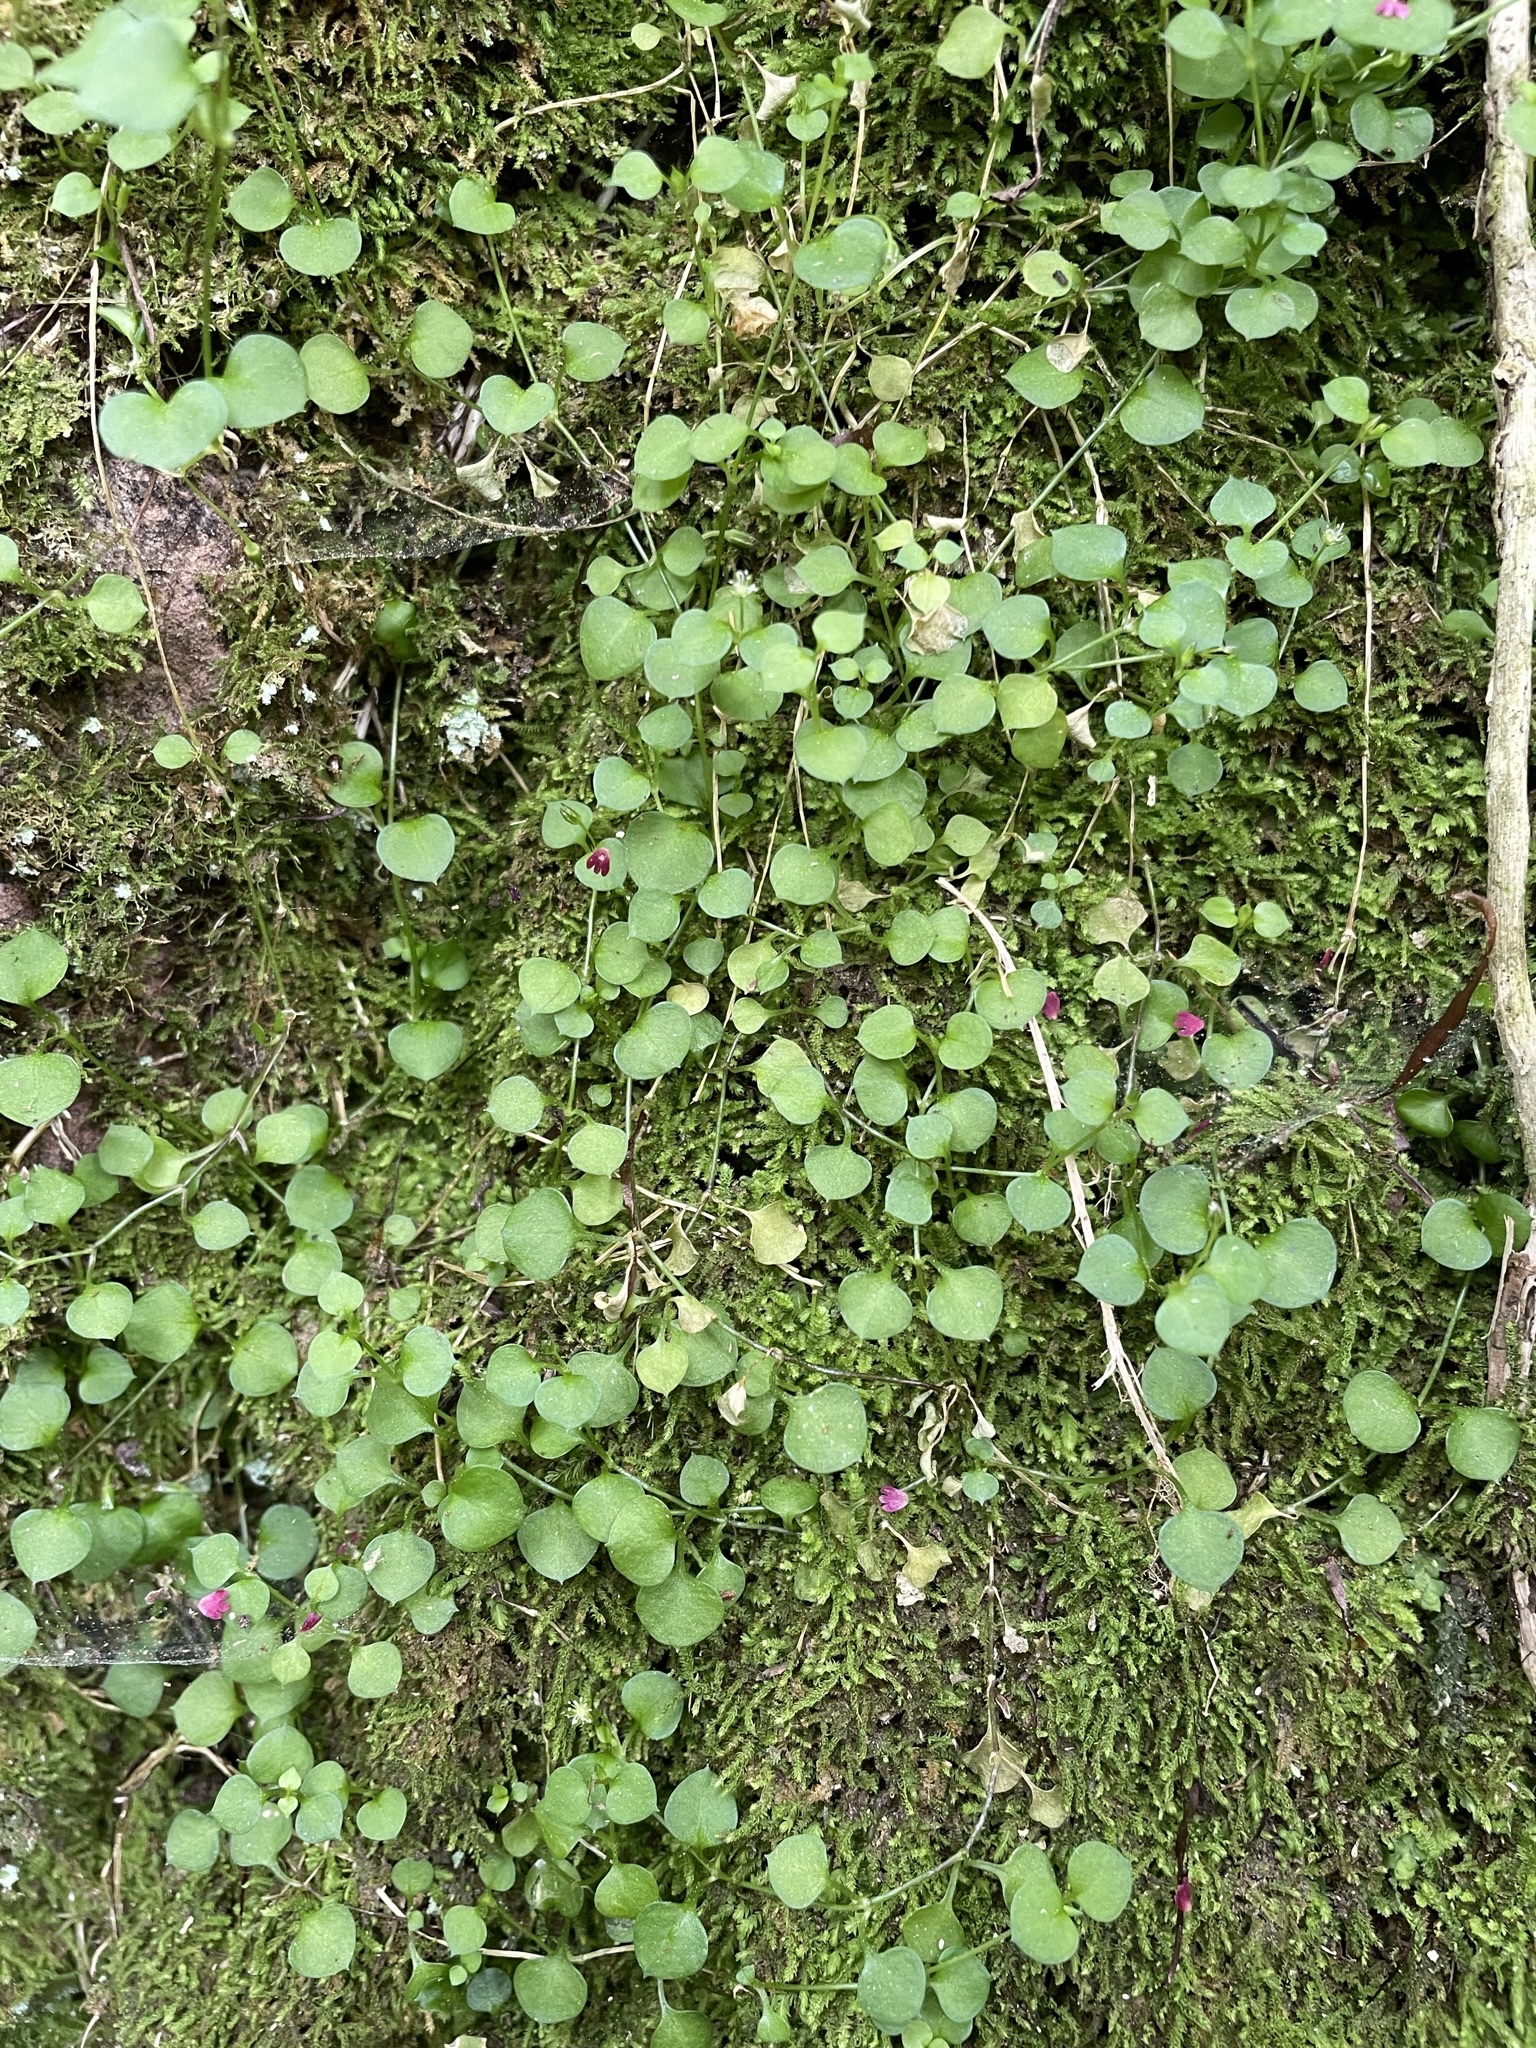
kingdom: Plantae
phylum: Tracheophyta
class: Magnoliopsida
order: Caryophyllales
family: Caryophyllaceae
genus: Stellaria
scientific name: Stellaria parviflora
